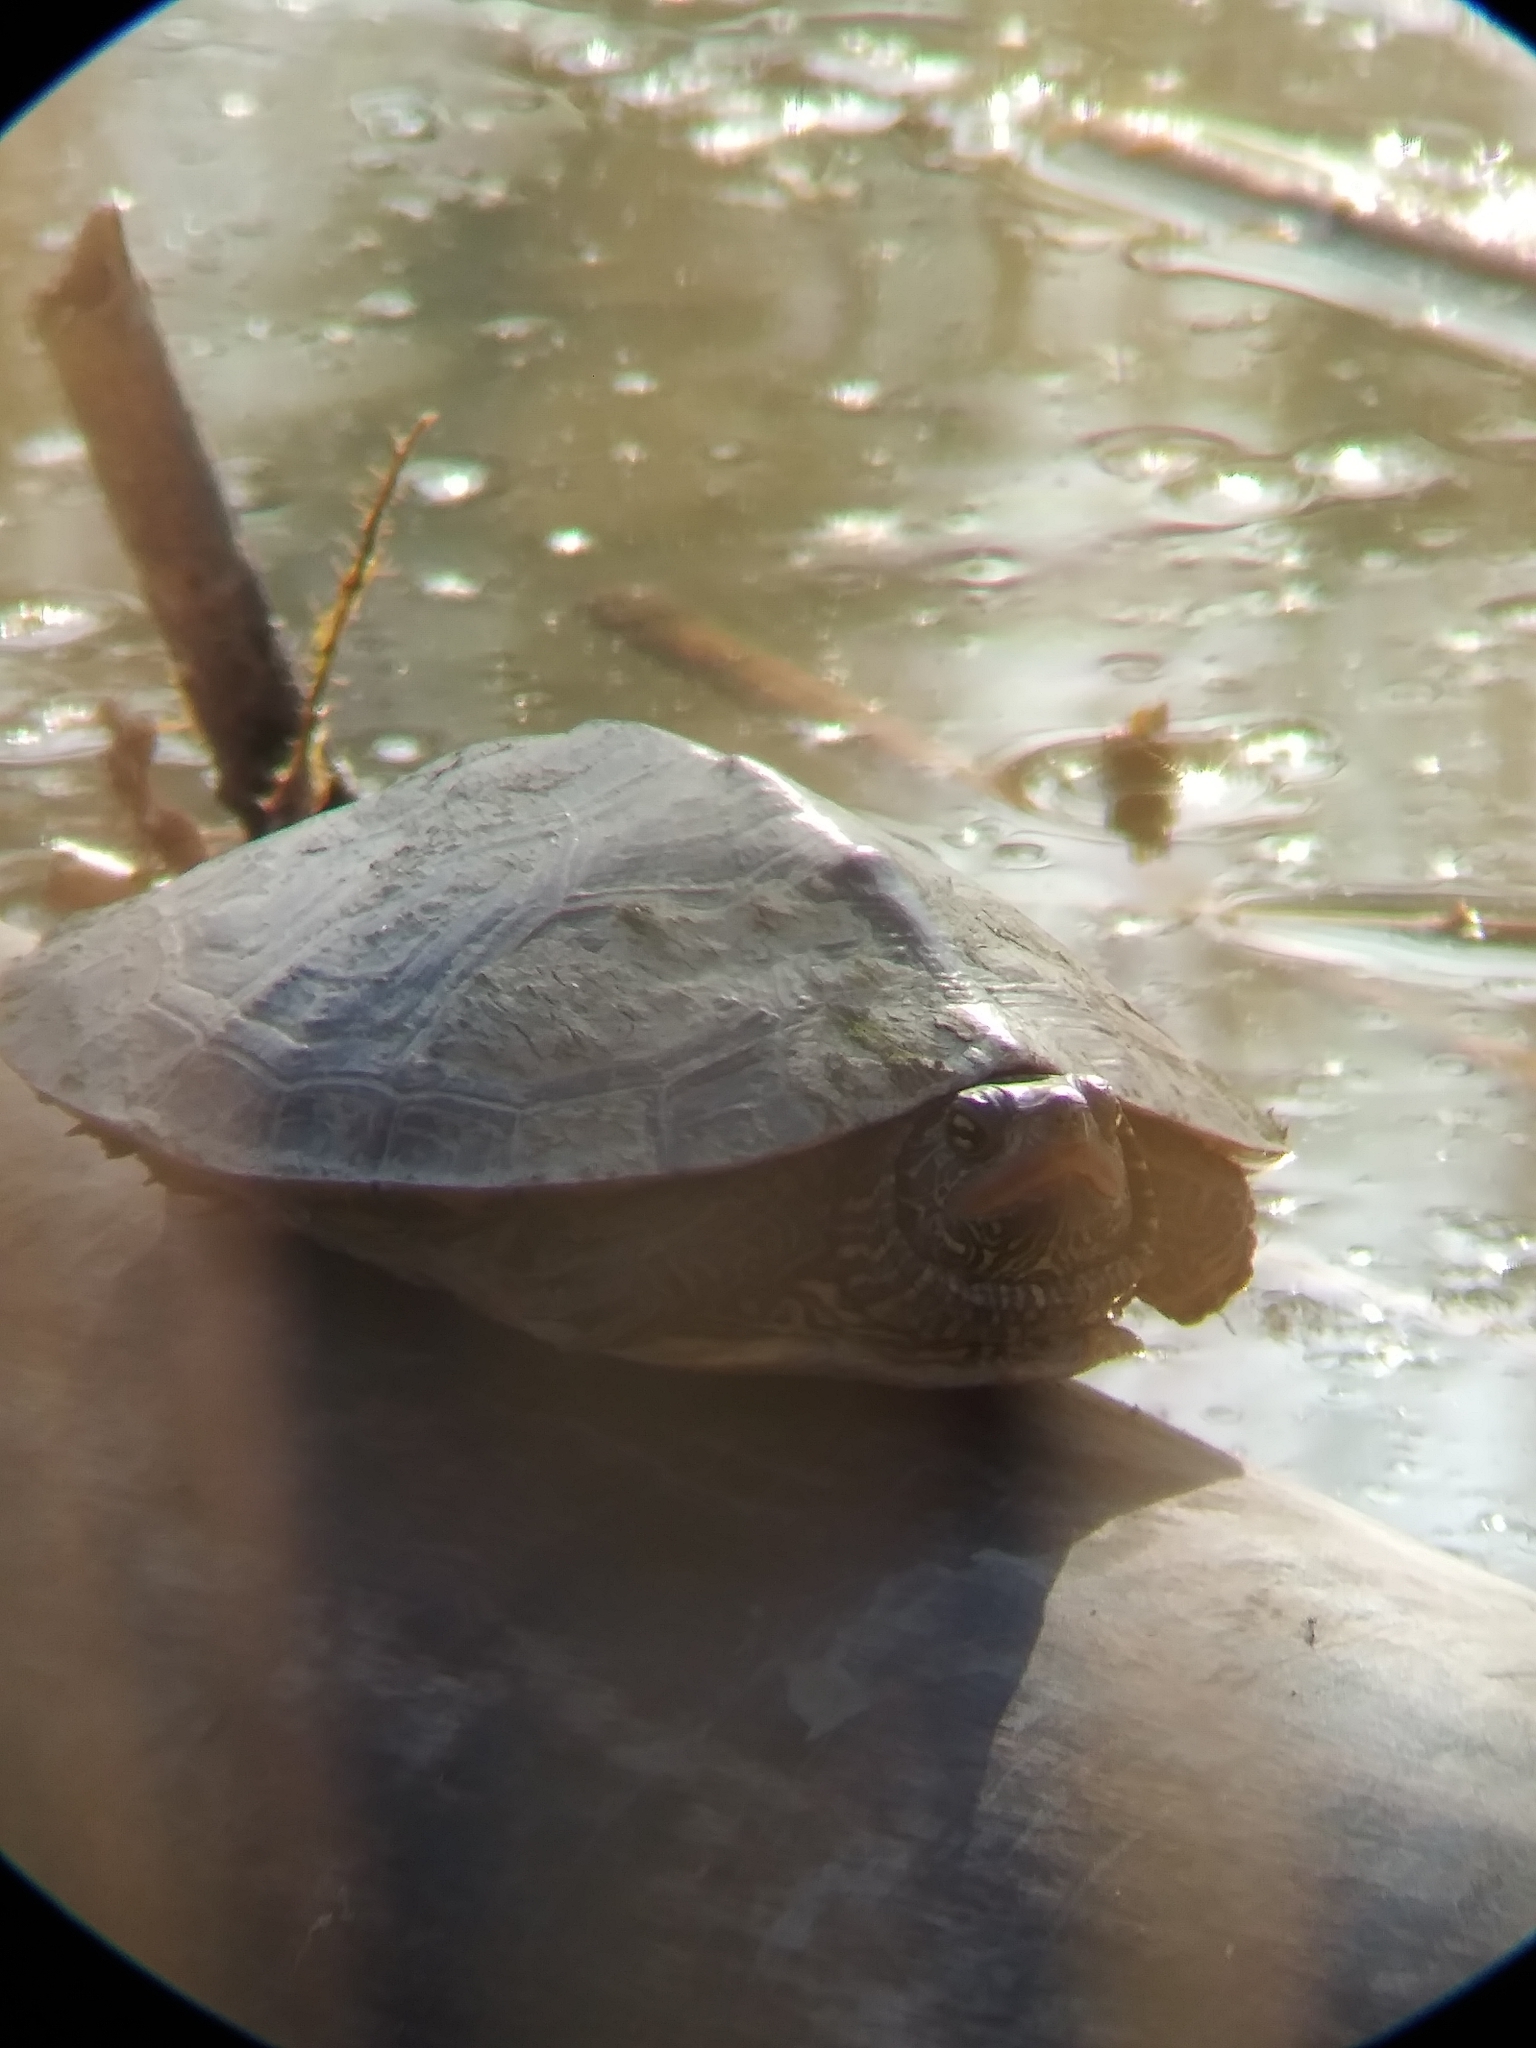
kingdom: Animalia
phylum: Chordata
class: Testudines
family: Emydidae
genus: Graptemys
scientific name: Graptemys geographica
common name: Common map turtle
